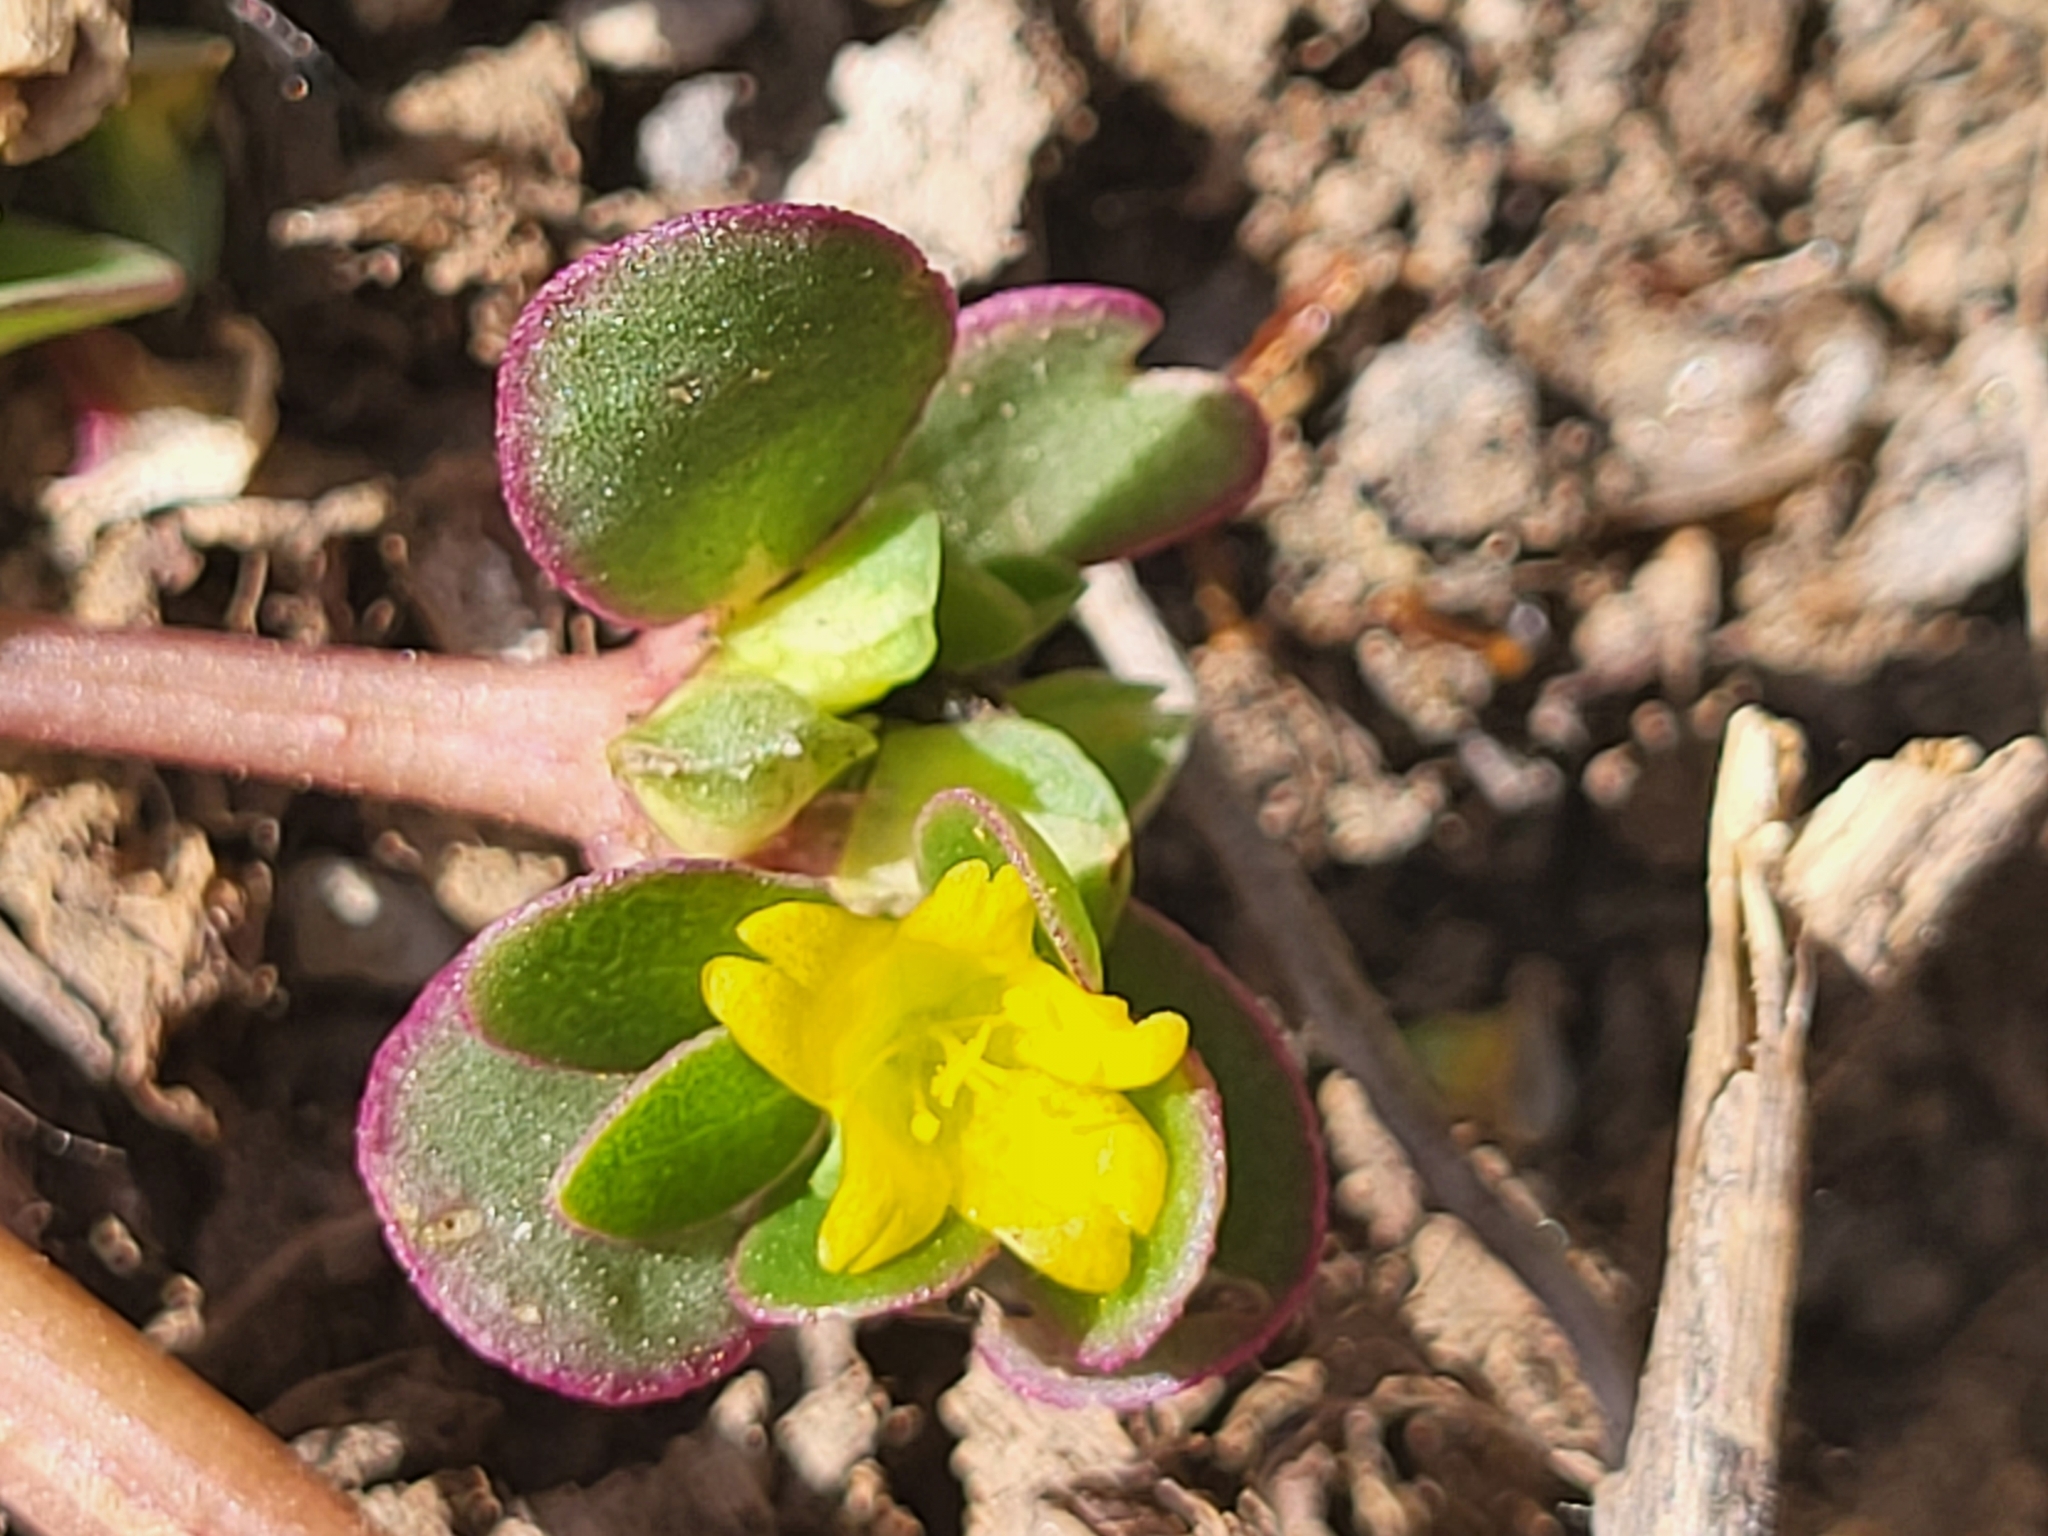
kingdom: Plantae
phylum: Tracheophyta
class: Magnoliopsida
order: Caryophyllales
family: Portulacaceae
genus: Portulaca
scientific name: Portulaca oleracea
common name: Common purslane
